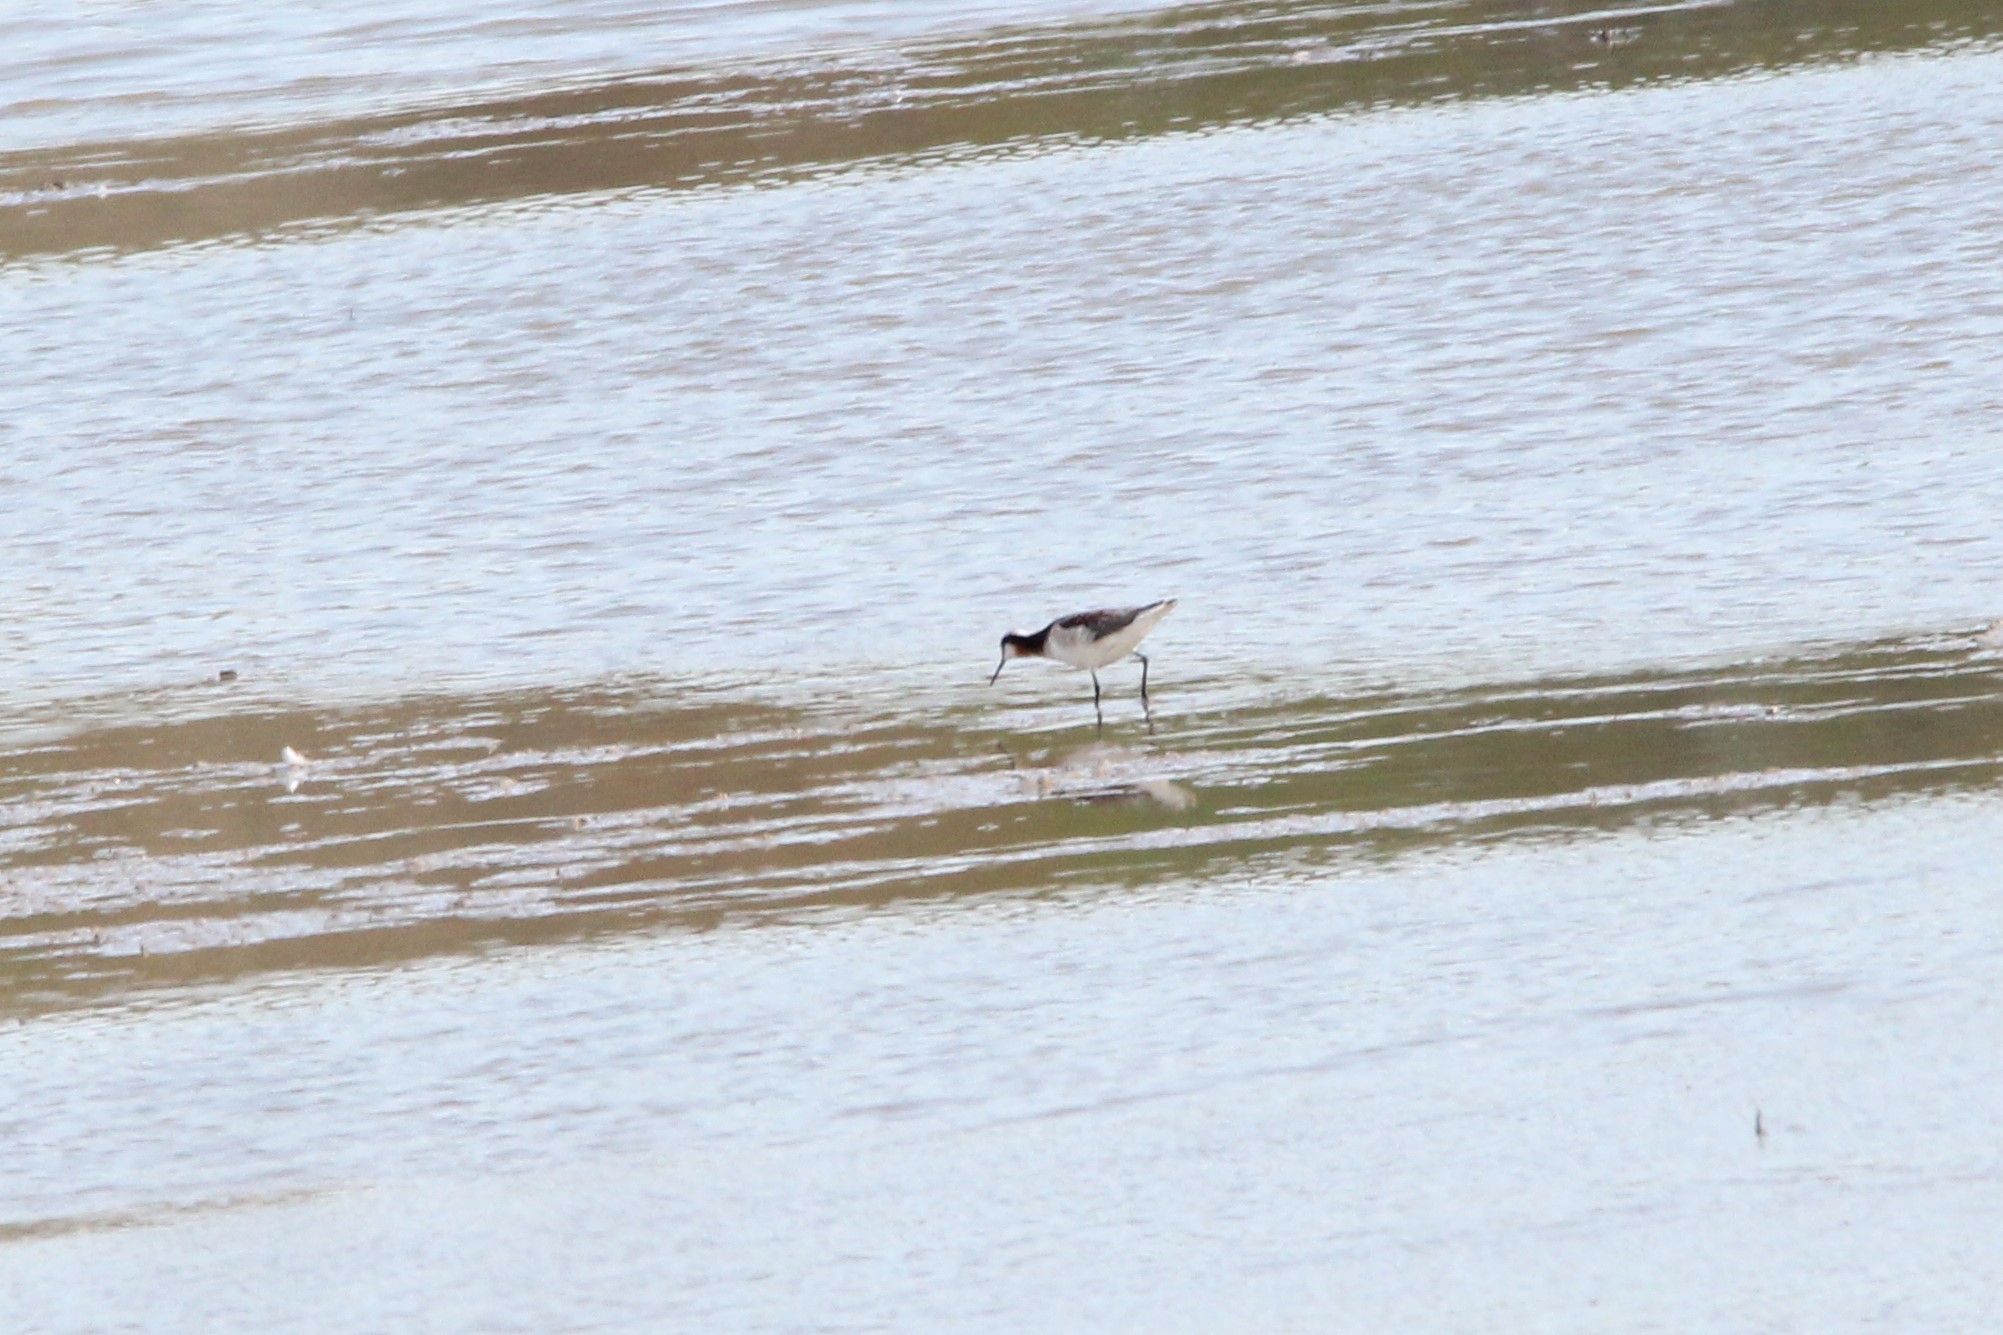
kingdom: Animalia
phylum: Chordata
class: Aves
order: Charadriiformes
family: Scolopacidae
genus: Phalaropus
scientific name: Phalaropus tricolor
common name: Wilson's phalarope
